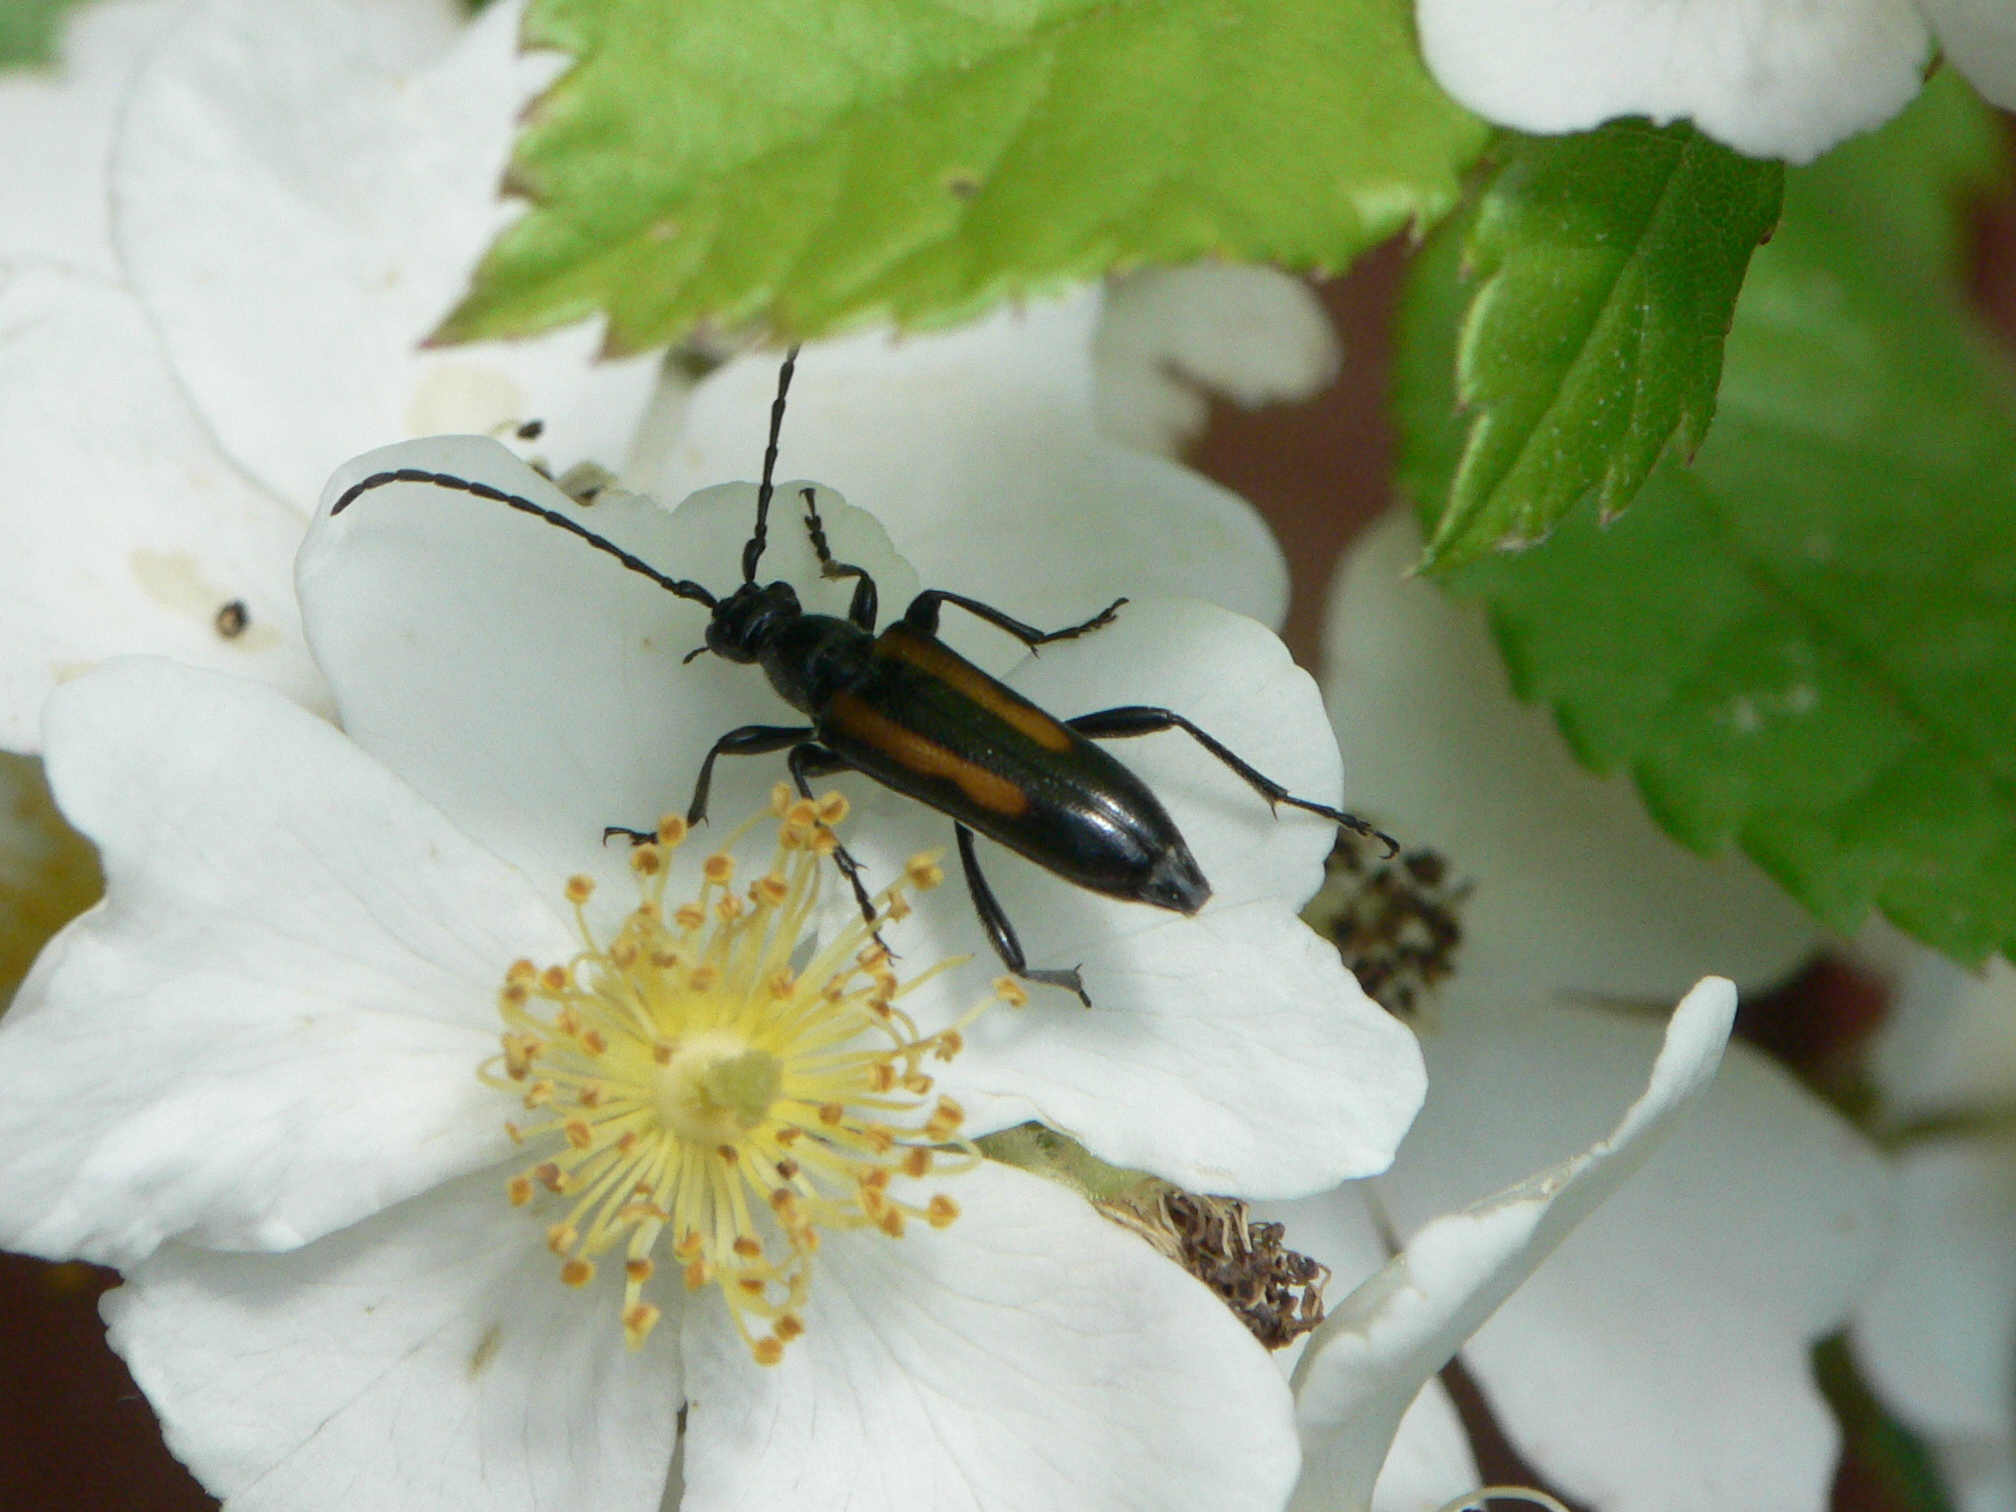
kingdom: Animalia
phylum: Arthropoda
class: Insecta
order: Coleoptera
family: Cerambycidae
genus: Strangalepta
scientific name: Strangalepta abbreviata
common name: Strangalepta flower longhorn beetle
